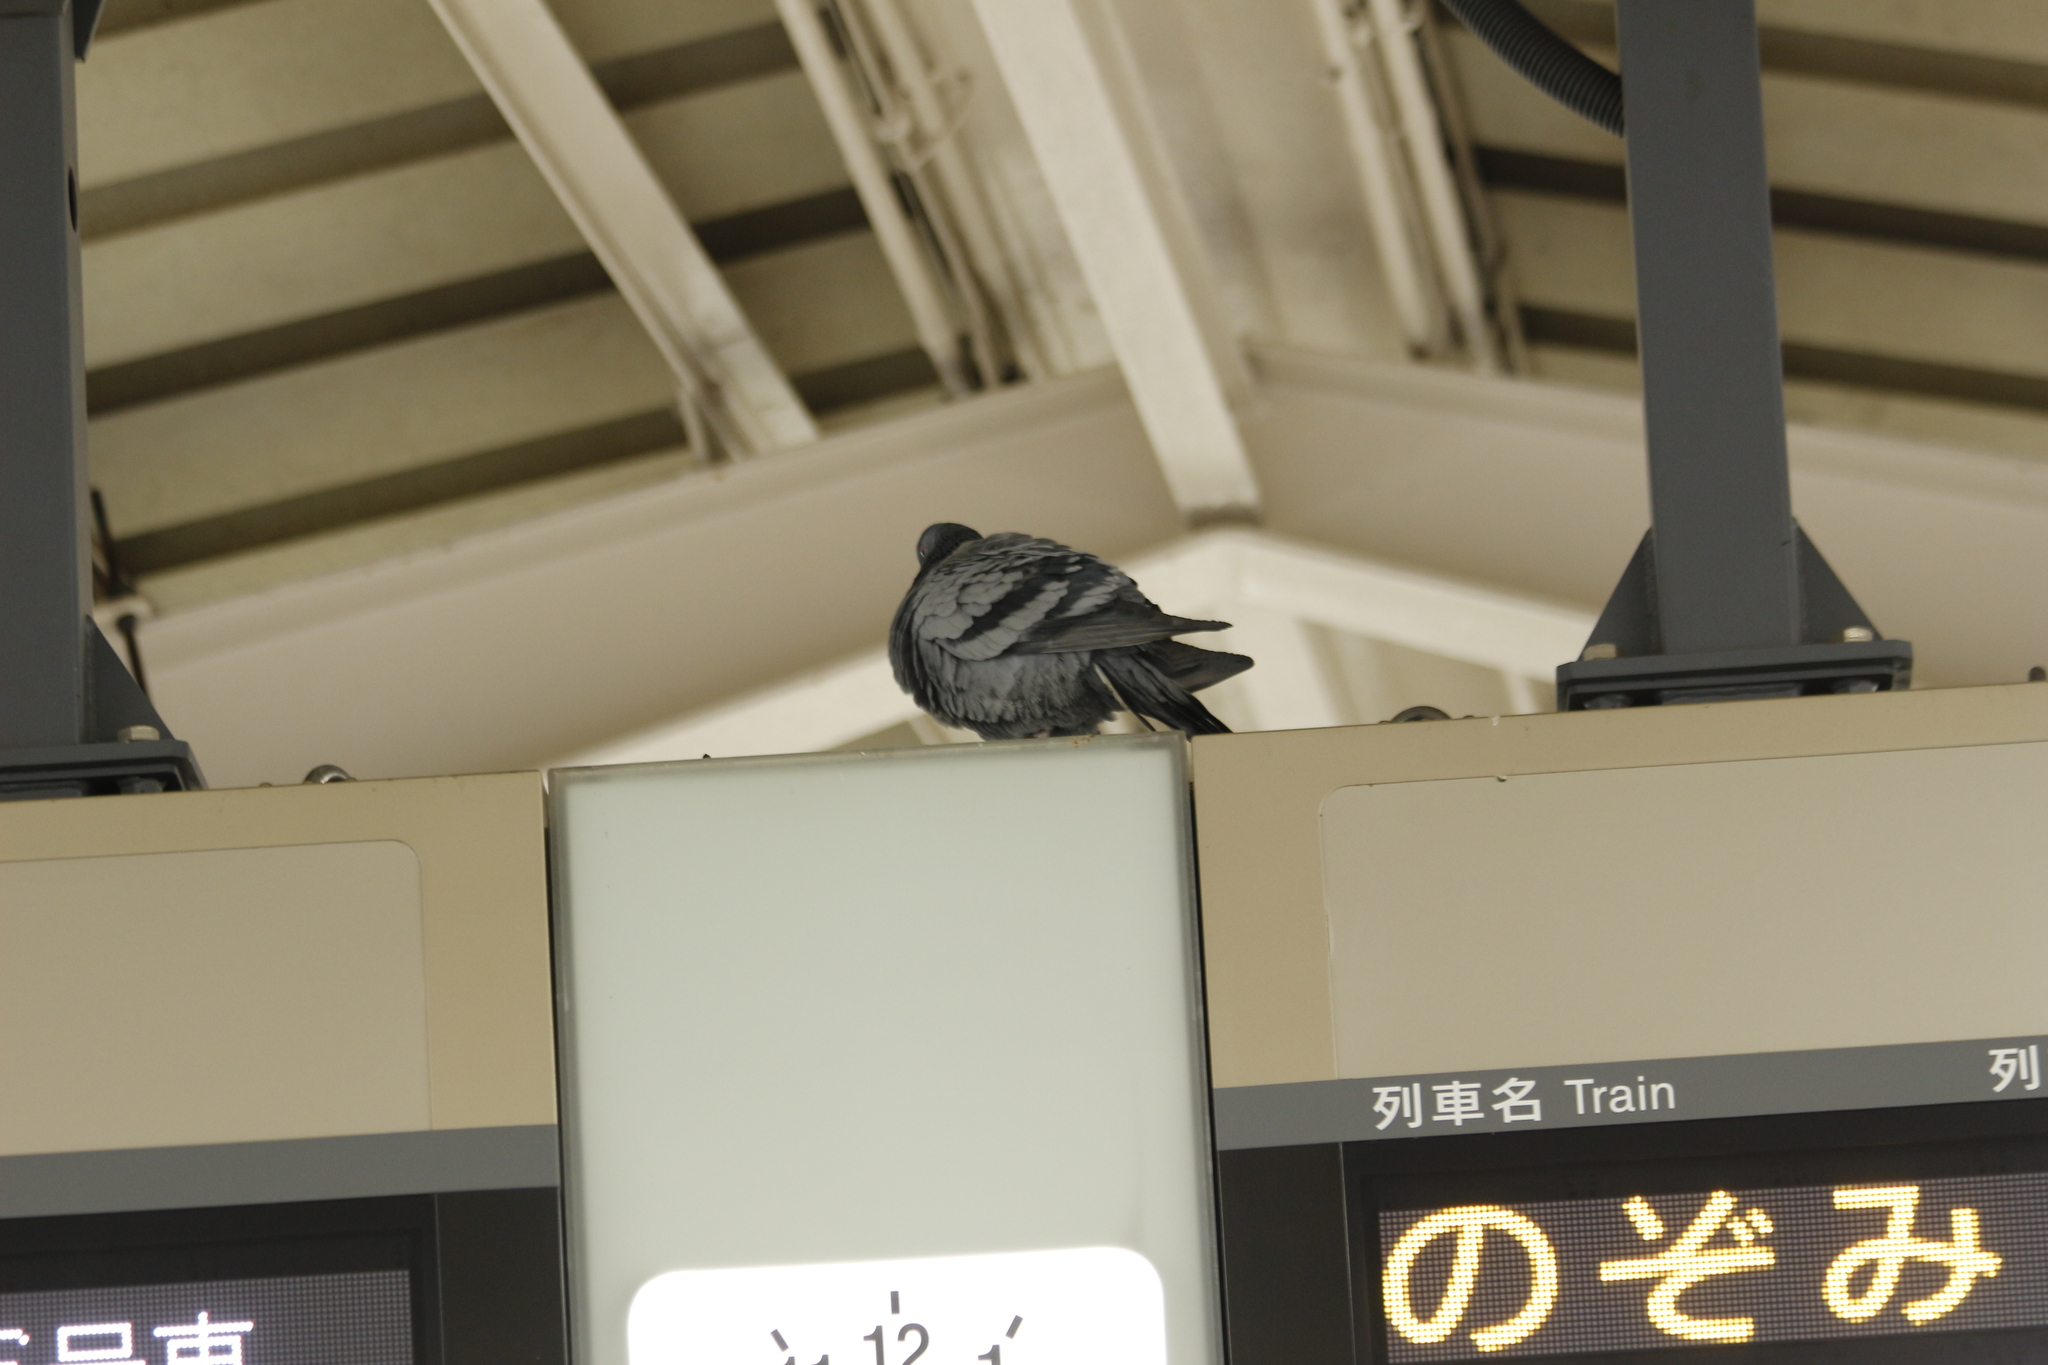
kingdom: Animalia
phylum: Chordata
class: Aves
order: Columbiformes
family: Columbidae
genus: Columba
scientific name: Columba livia
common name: Rock pigeon
